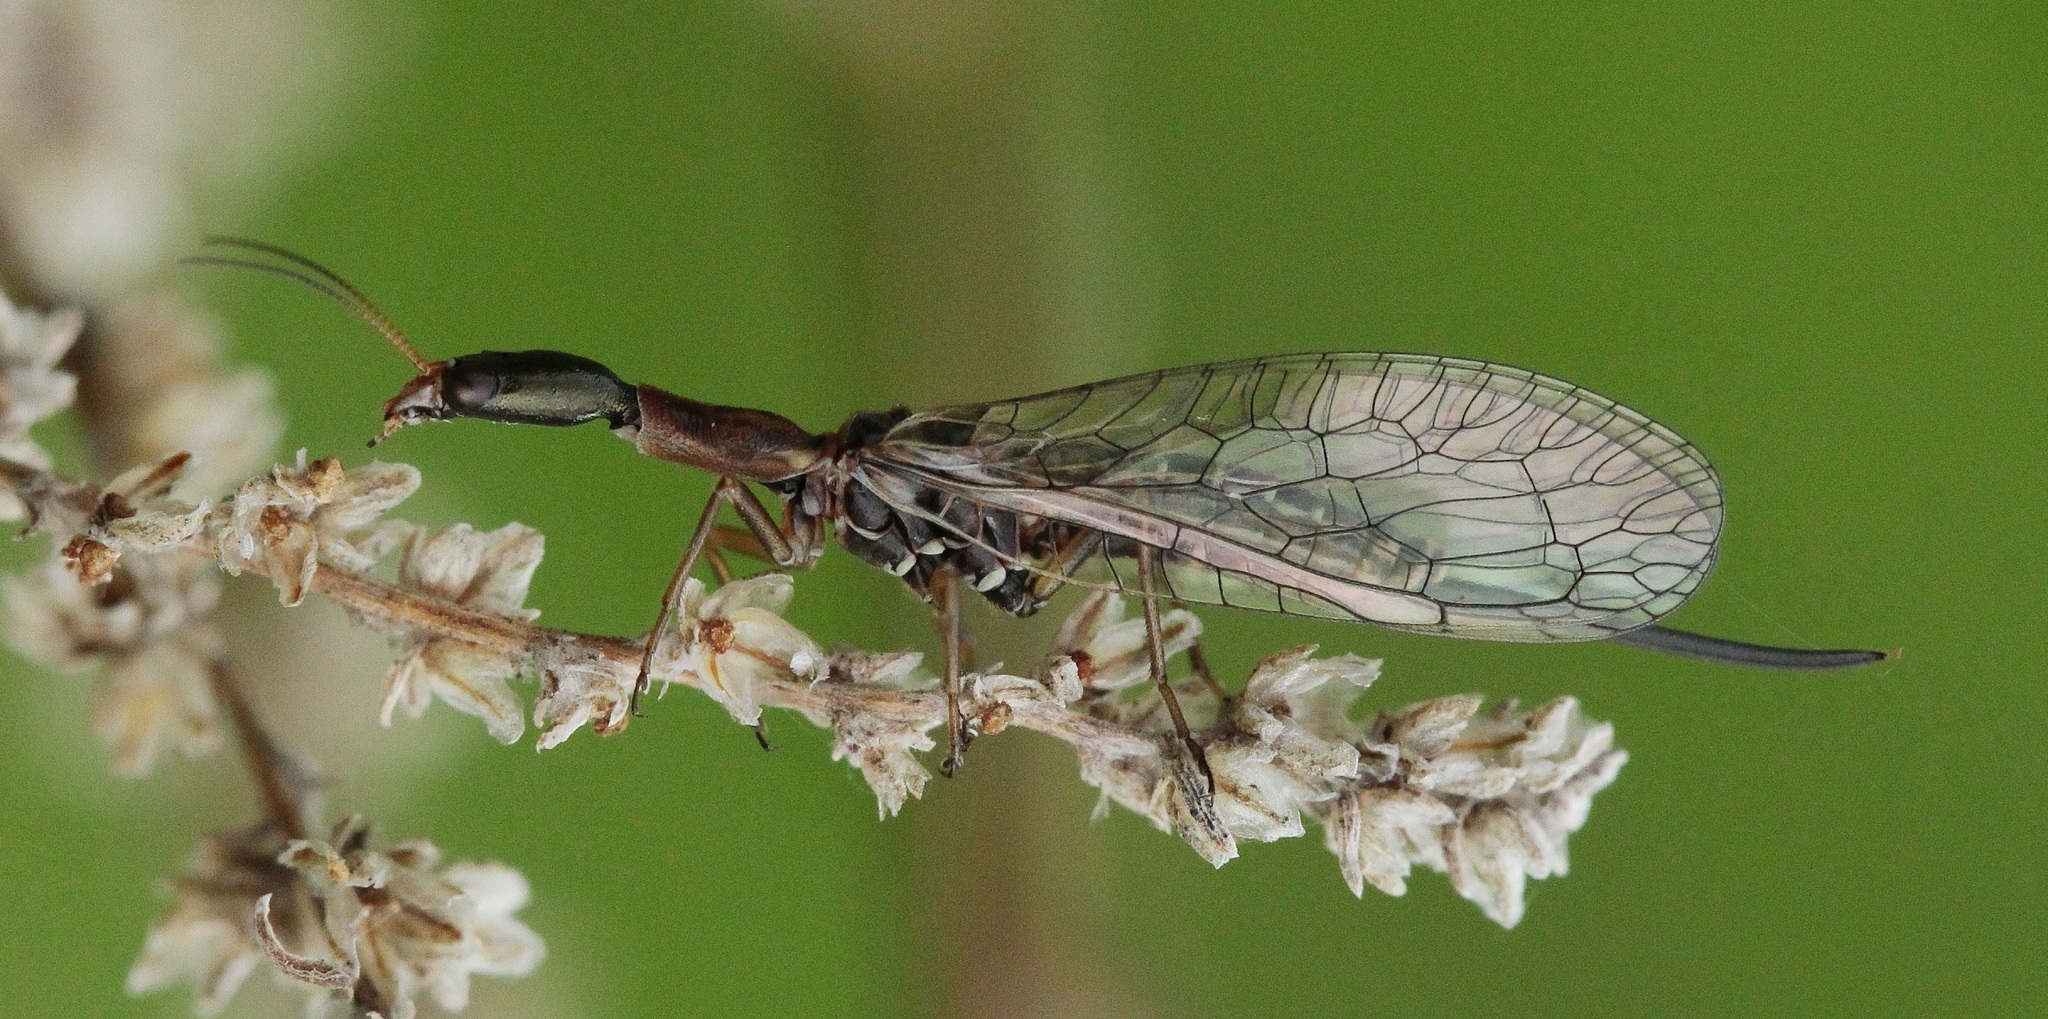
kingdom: Animalia
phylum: Arthropoda
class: Insecta
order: Raphidioptera
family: Raphidiidae
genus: Xanthostigma
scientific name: Xanthostigma xanthostigma
